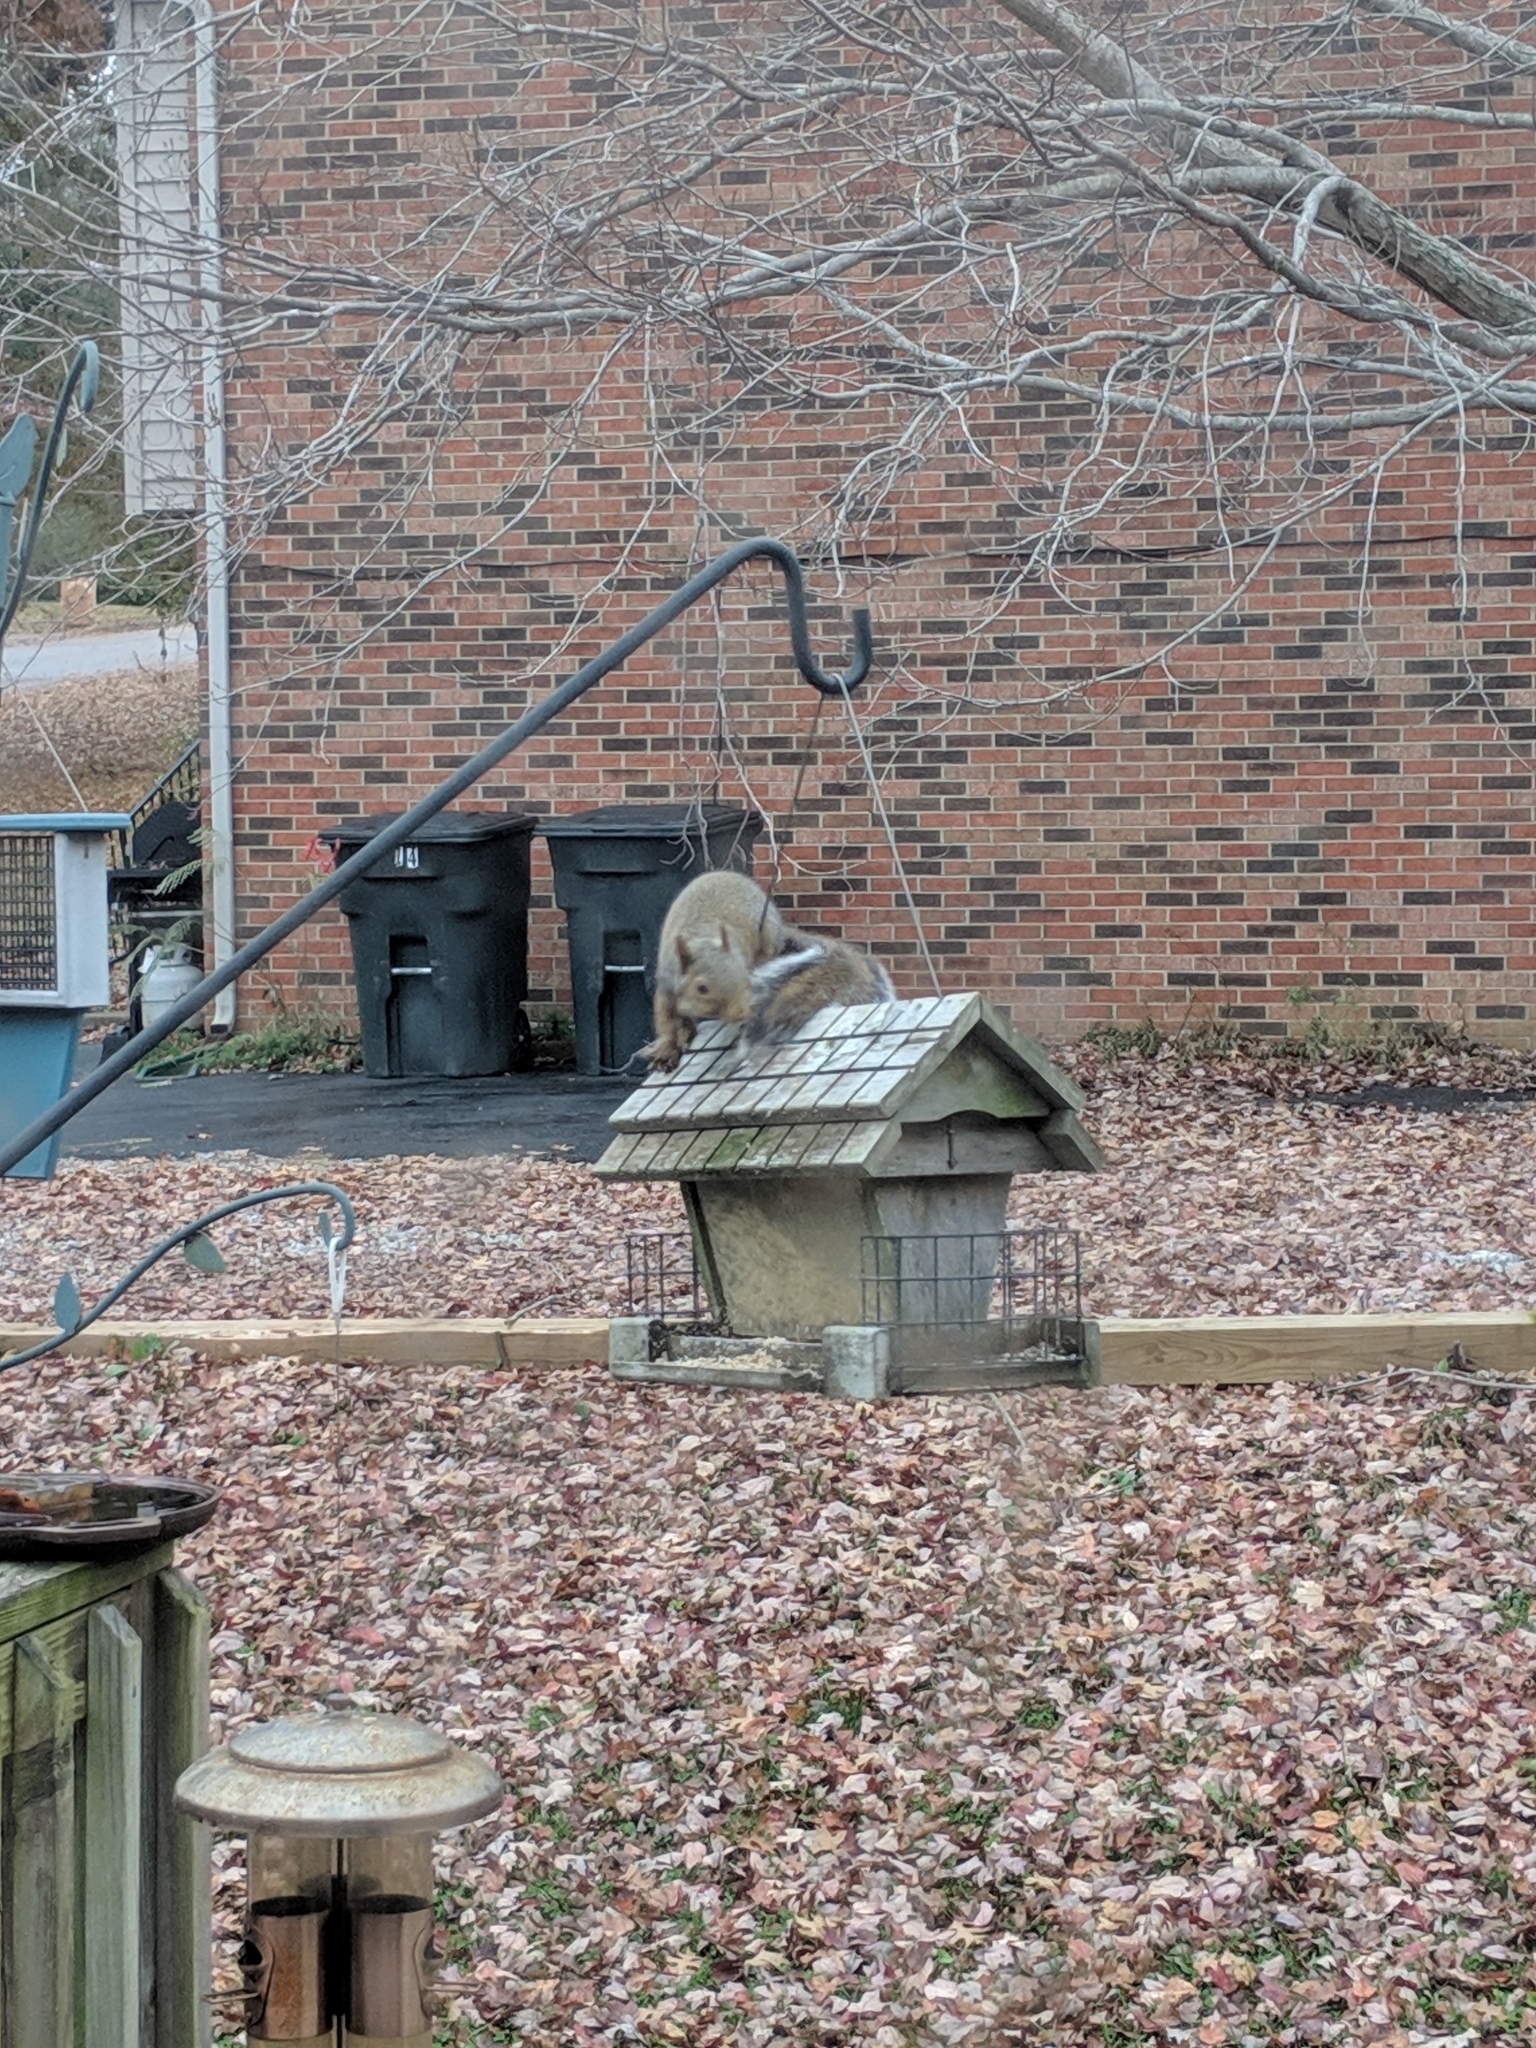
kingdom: Animalia
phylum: Chordata
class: Mammalia
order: Rodentia
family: Sciuridae
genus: Sciurus
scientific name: Sciurus carolinensis
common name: Eastern gray squirrel
